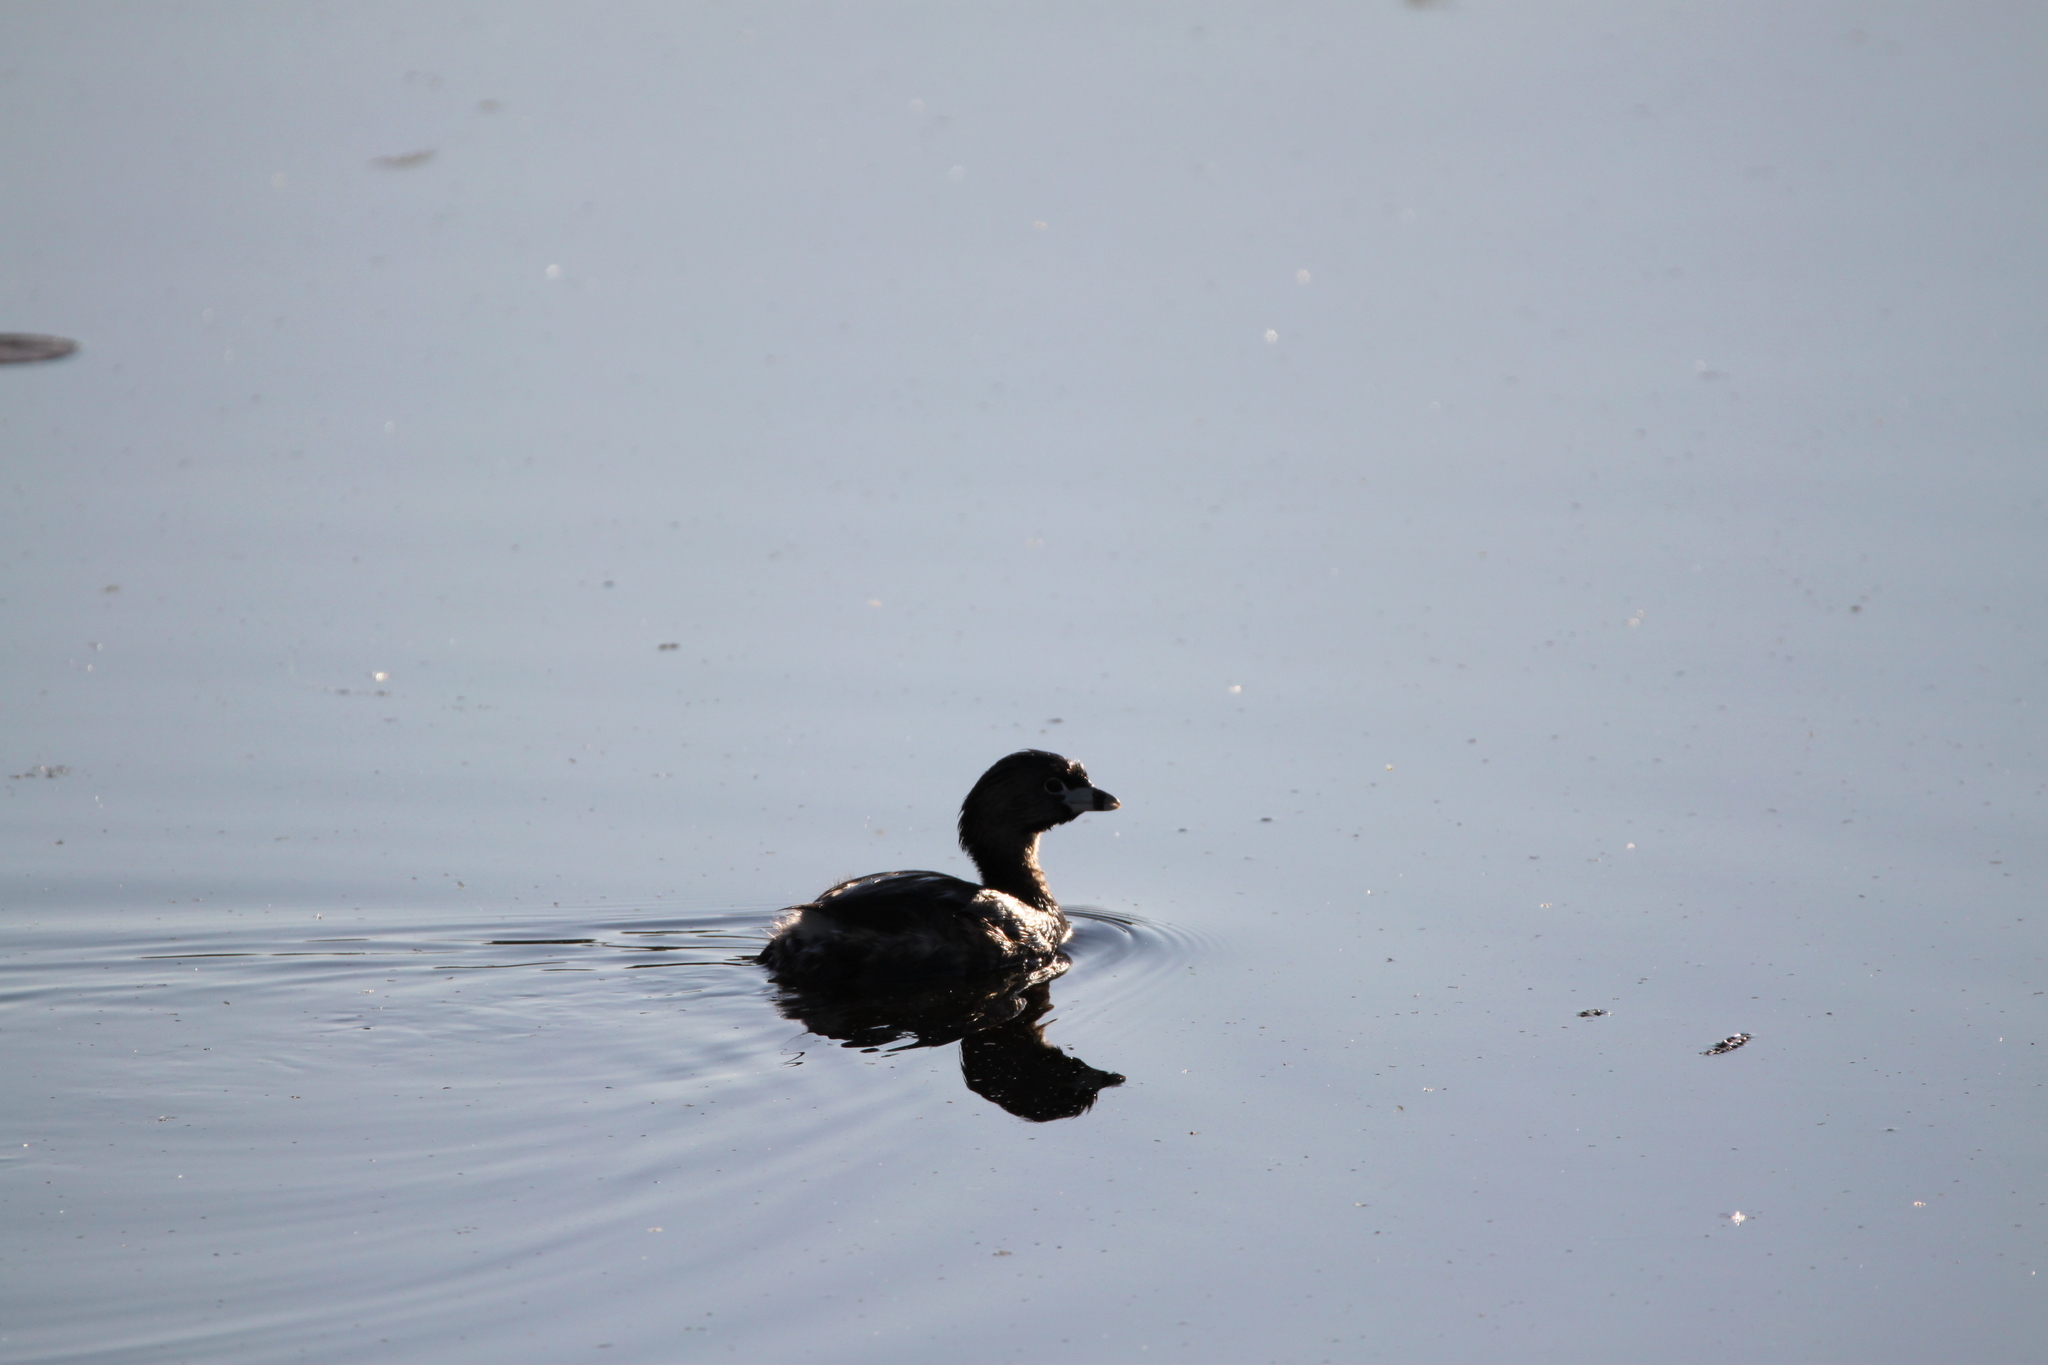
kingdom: Animalia
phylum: Chordata
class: Aves
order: Podicipediformes
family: Podicipedidae
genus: Podilymbus
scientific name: Podilymbus podiceps
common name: Pied-billed grebe
